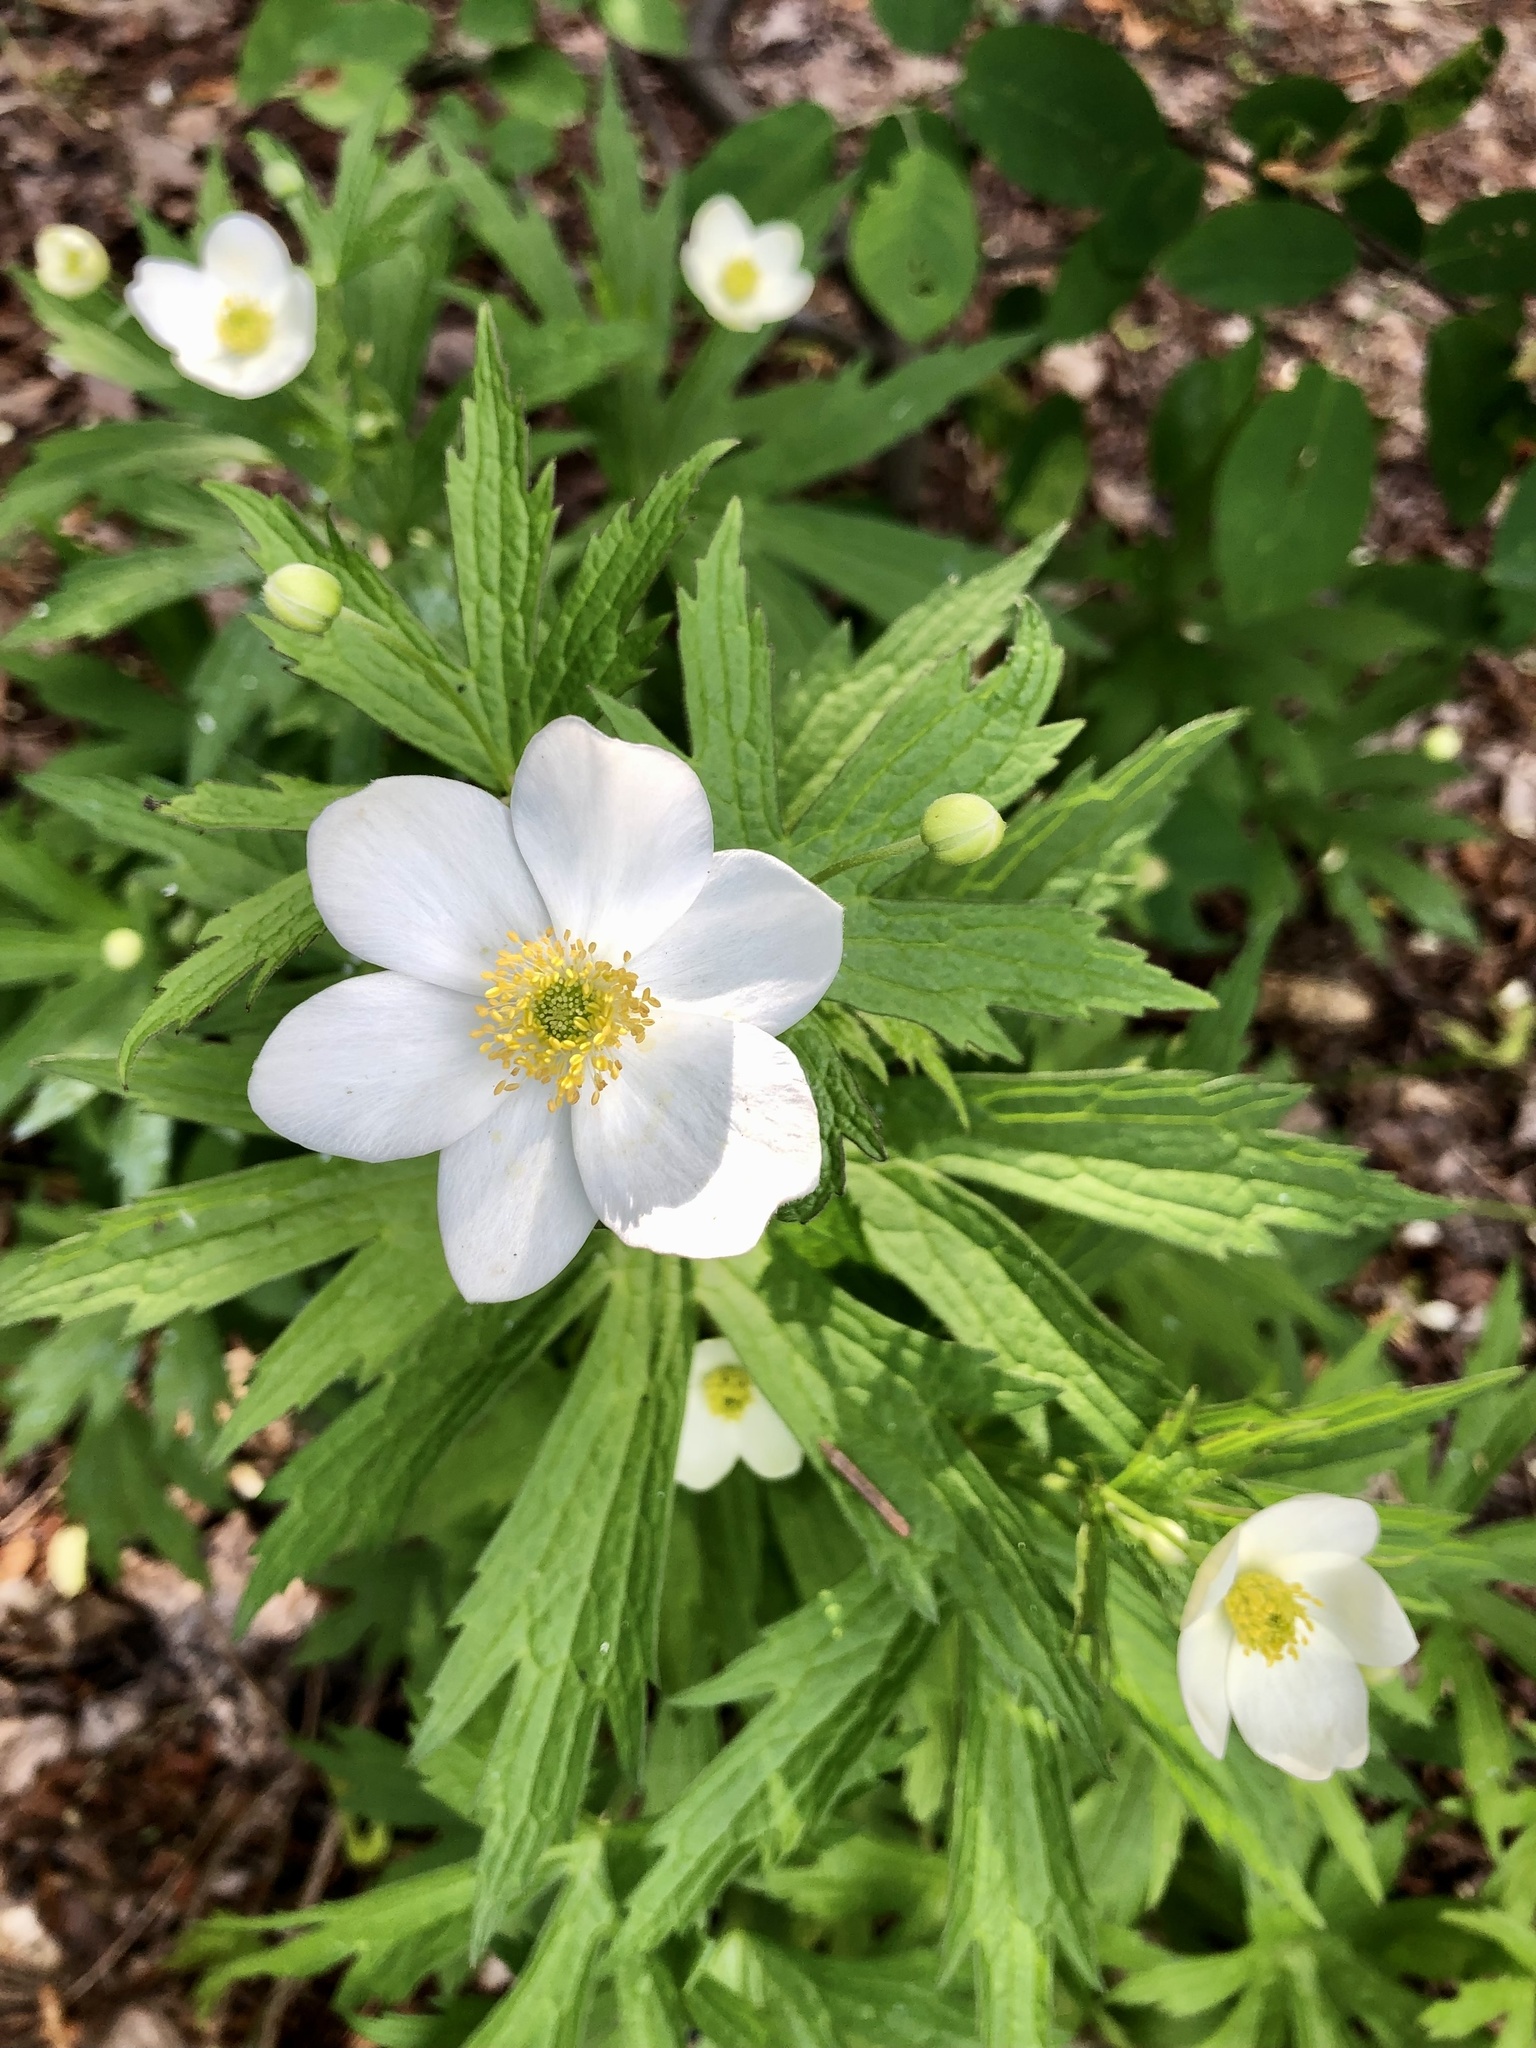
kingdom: Plantae
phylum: Tracheophyta
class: Magnoliopsida
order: Ranunculales
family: Ranunculaceae
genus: Anemonastrum
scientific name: Anemonastrum canadense
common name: Canada anemone
